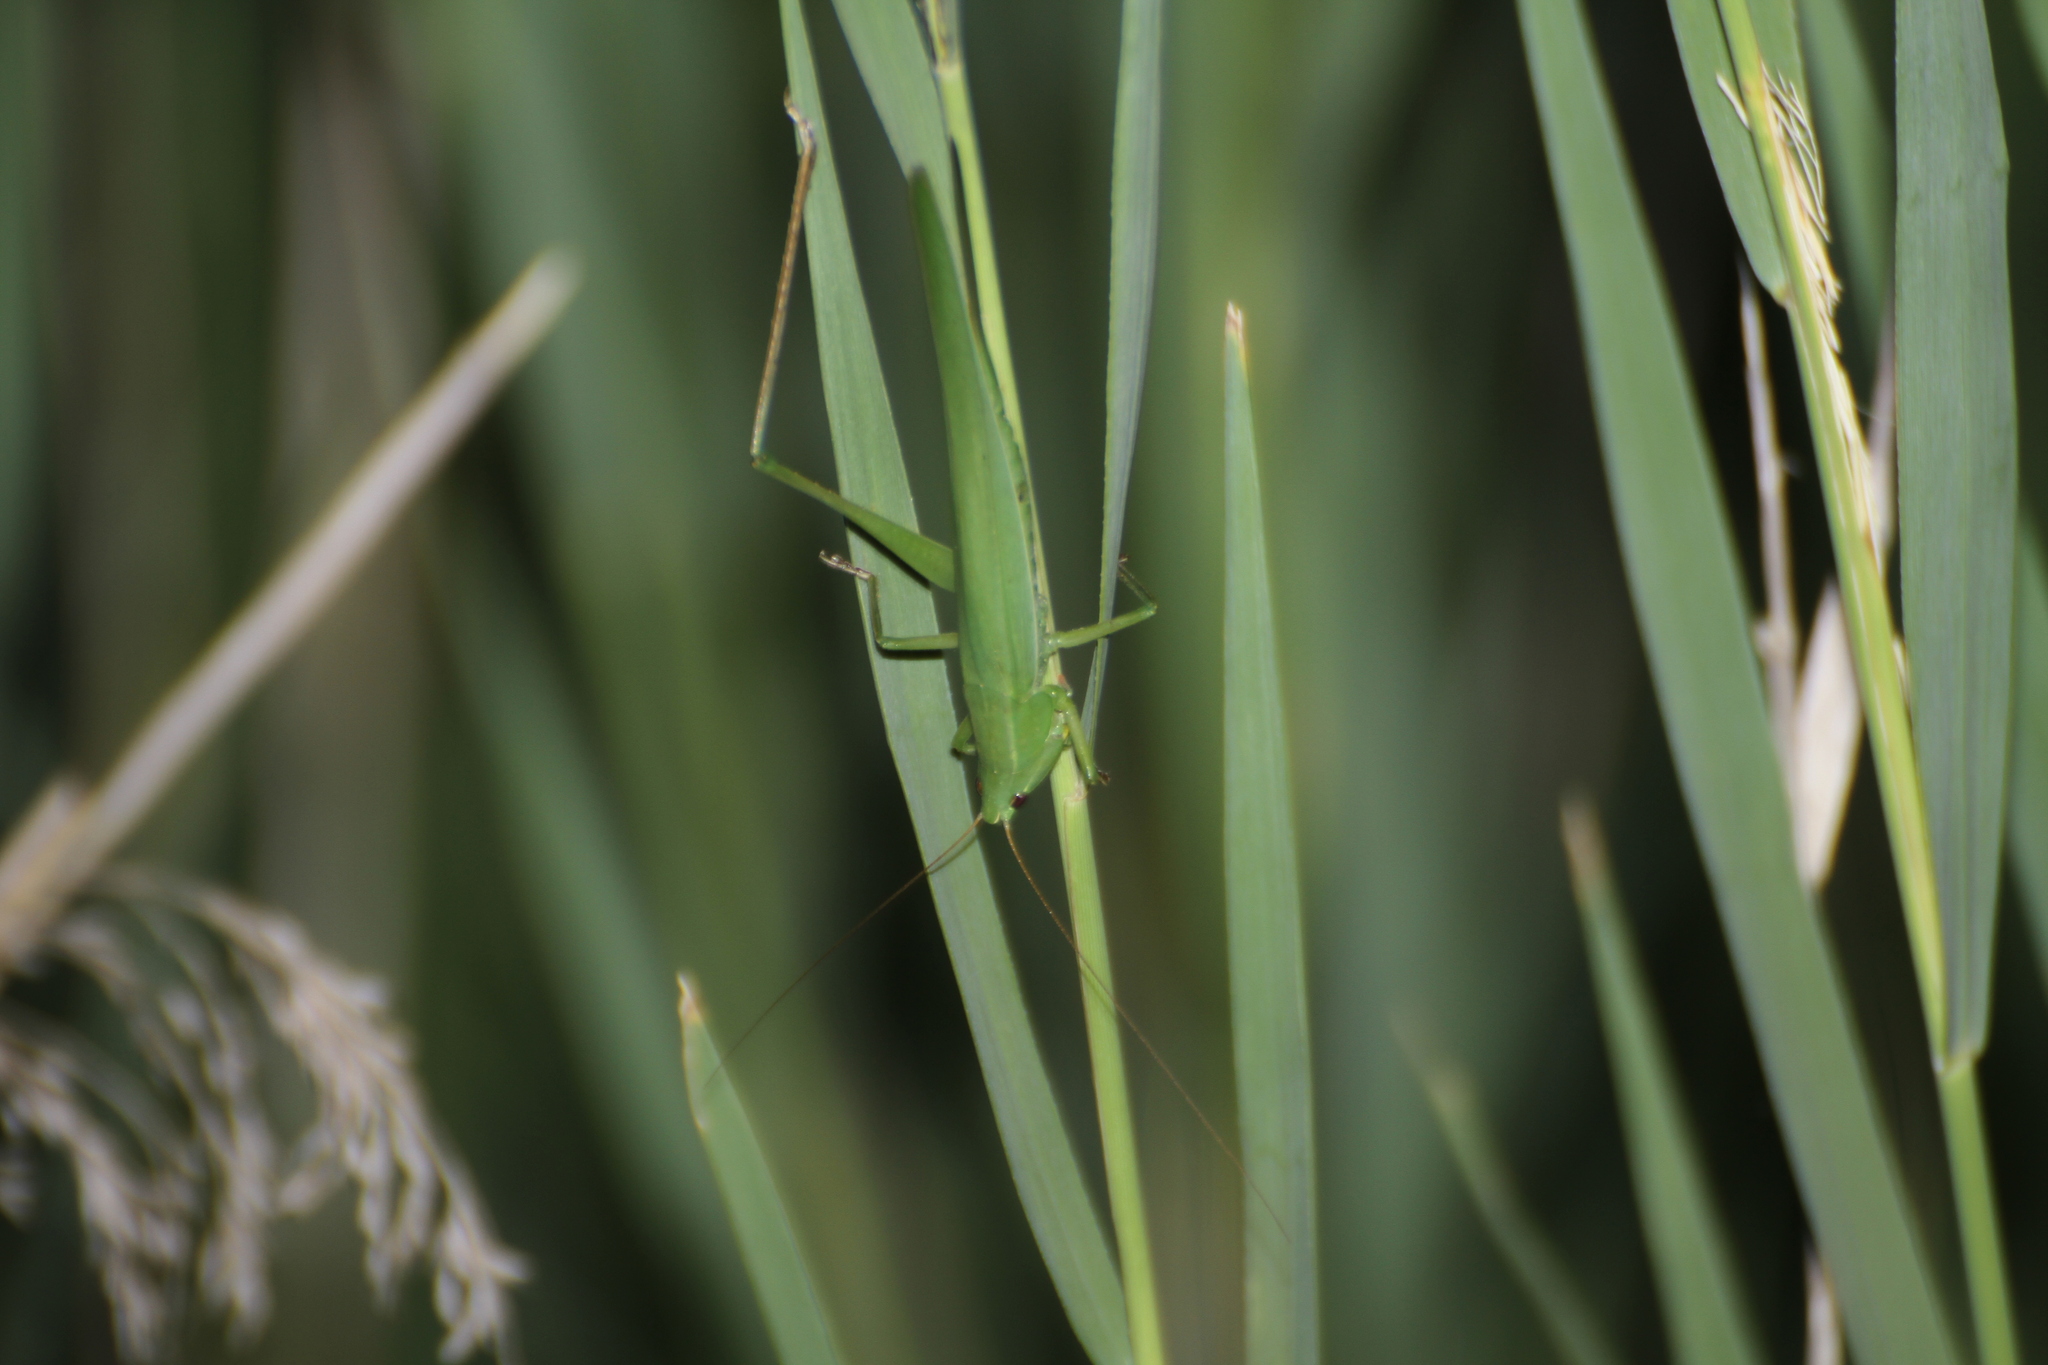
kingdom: Animalia
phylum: Arthropoda
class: Insecta
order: Orthoptera
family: Tettigoniidae
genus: Ruspolia
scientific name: Ruspolia nitidula
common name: Large conehead
